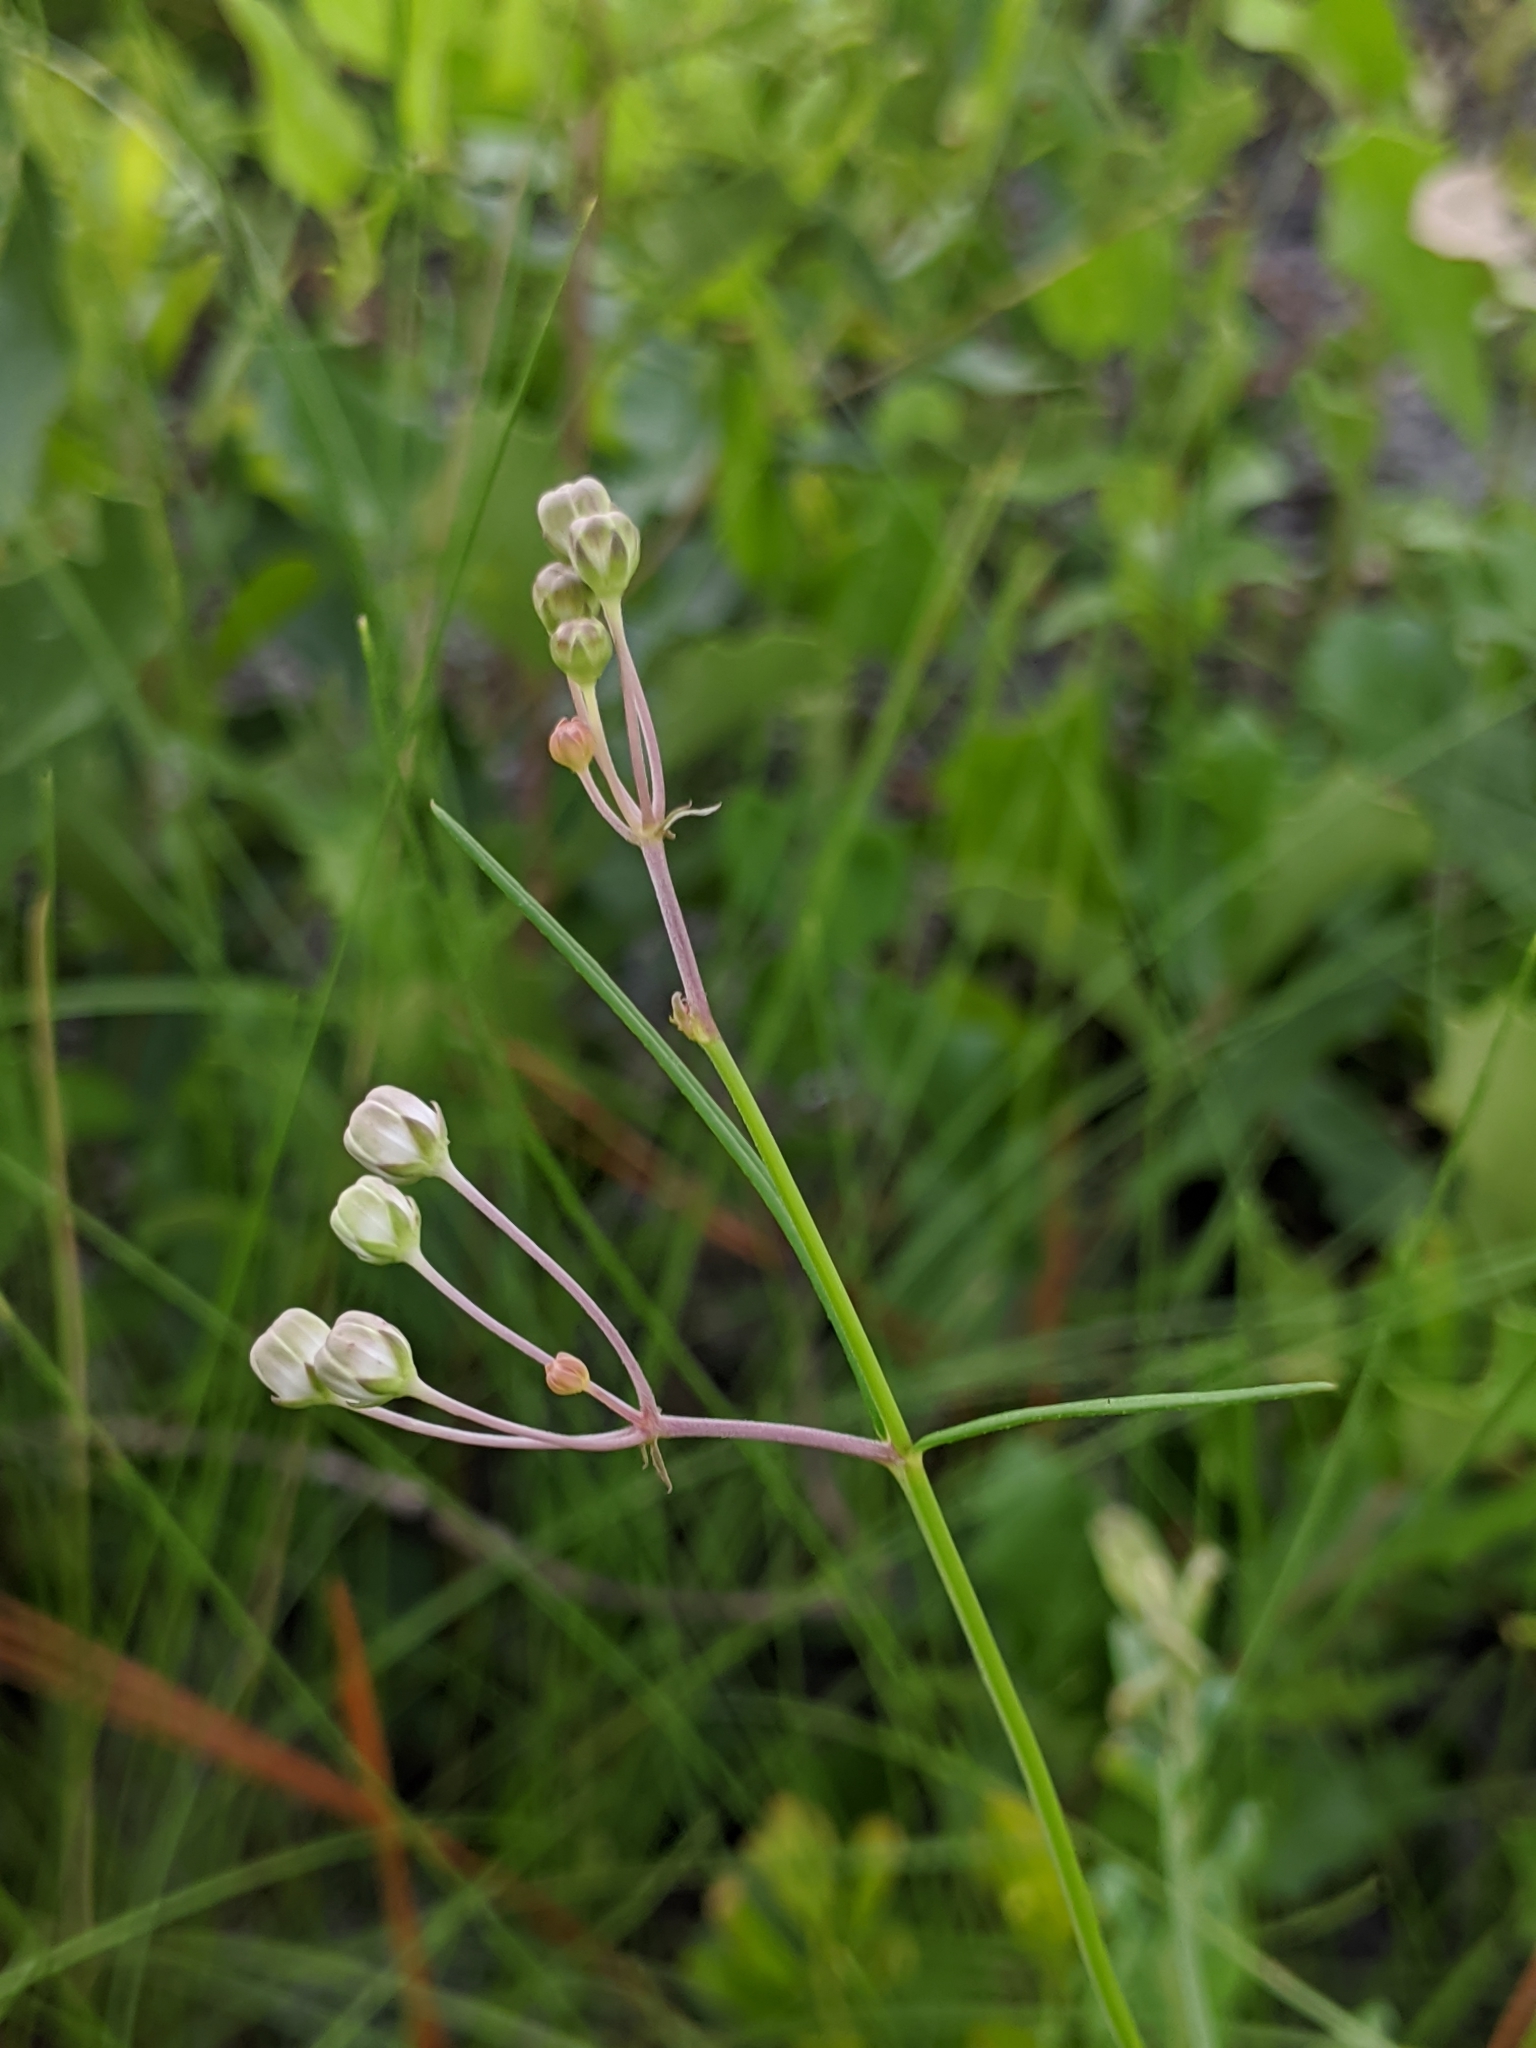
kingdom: Plantae
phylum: Tracheophyta
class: Magnoliopsida
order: Gentianales
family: Apocynaceae
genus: Asclepias
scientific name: Asclepias cinerea
